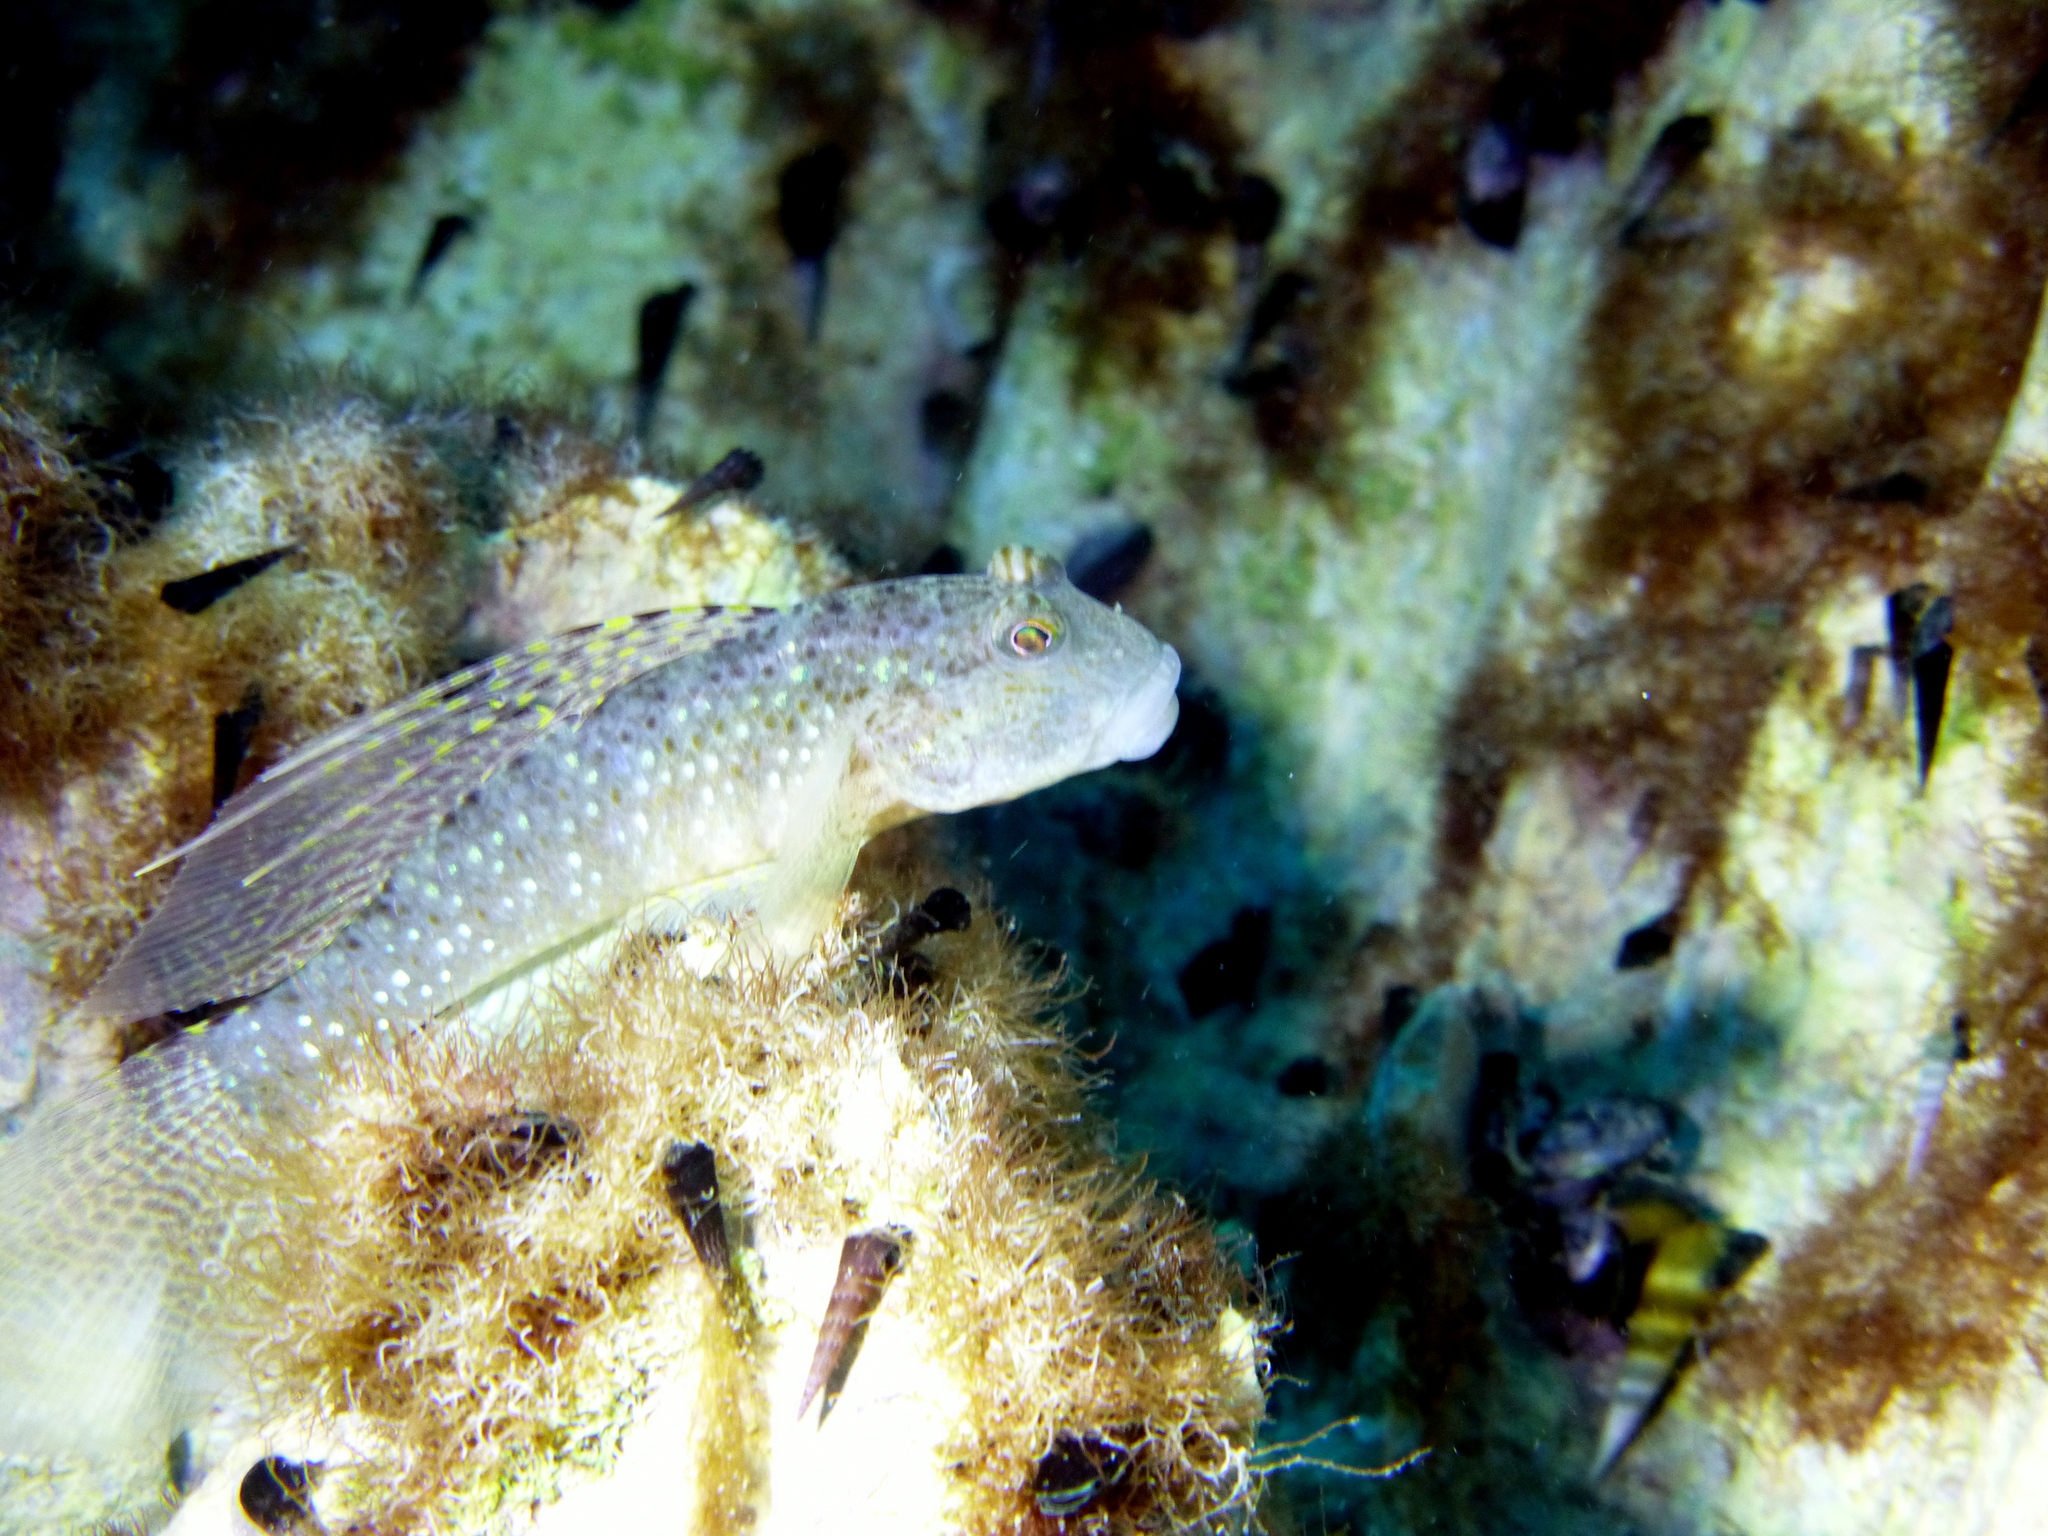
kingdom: Animalia
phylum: Chordata
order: Perciformes
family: Gobiidae
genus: Exyrias
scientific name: Exyrias puntang
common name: Puntang goby
